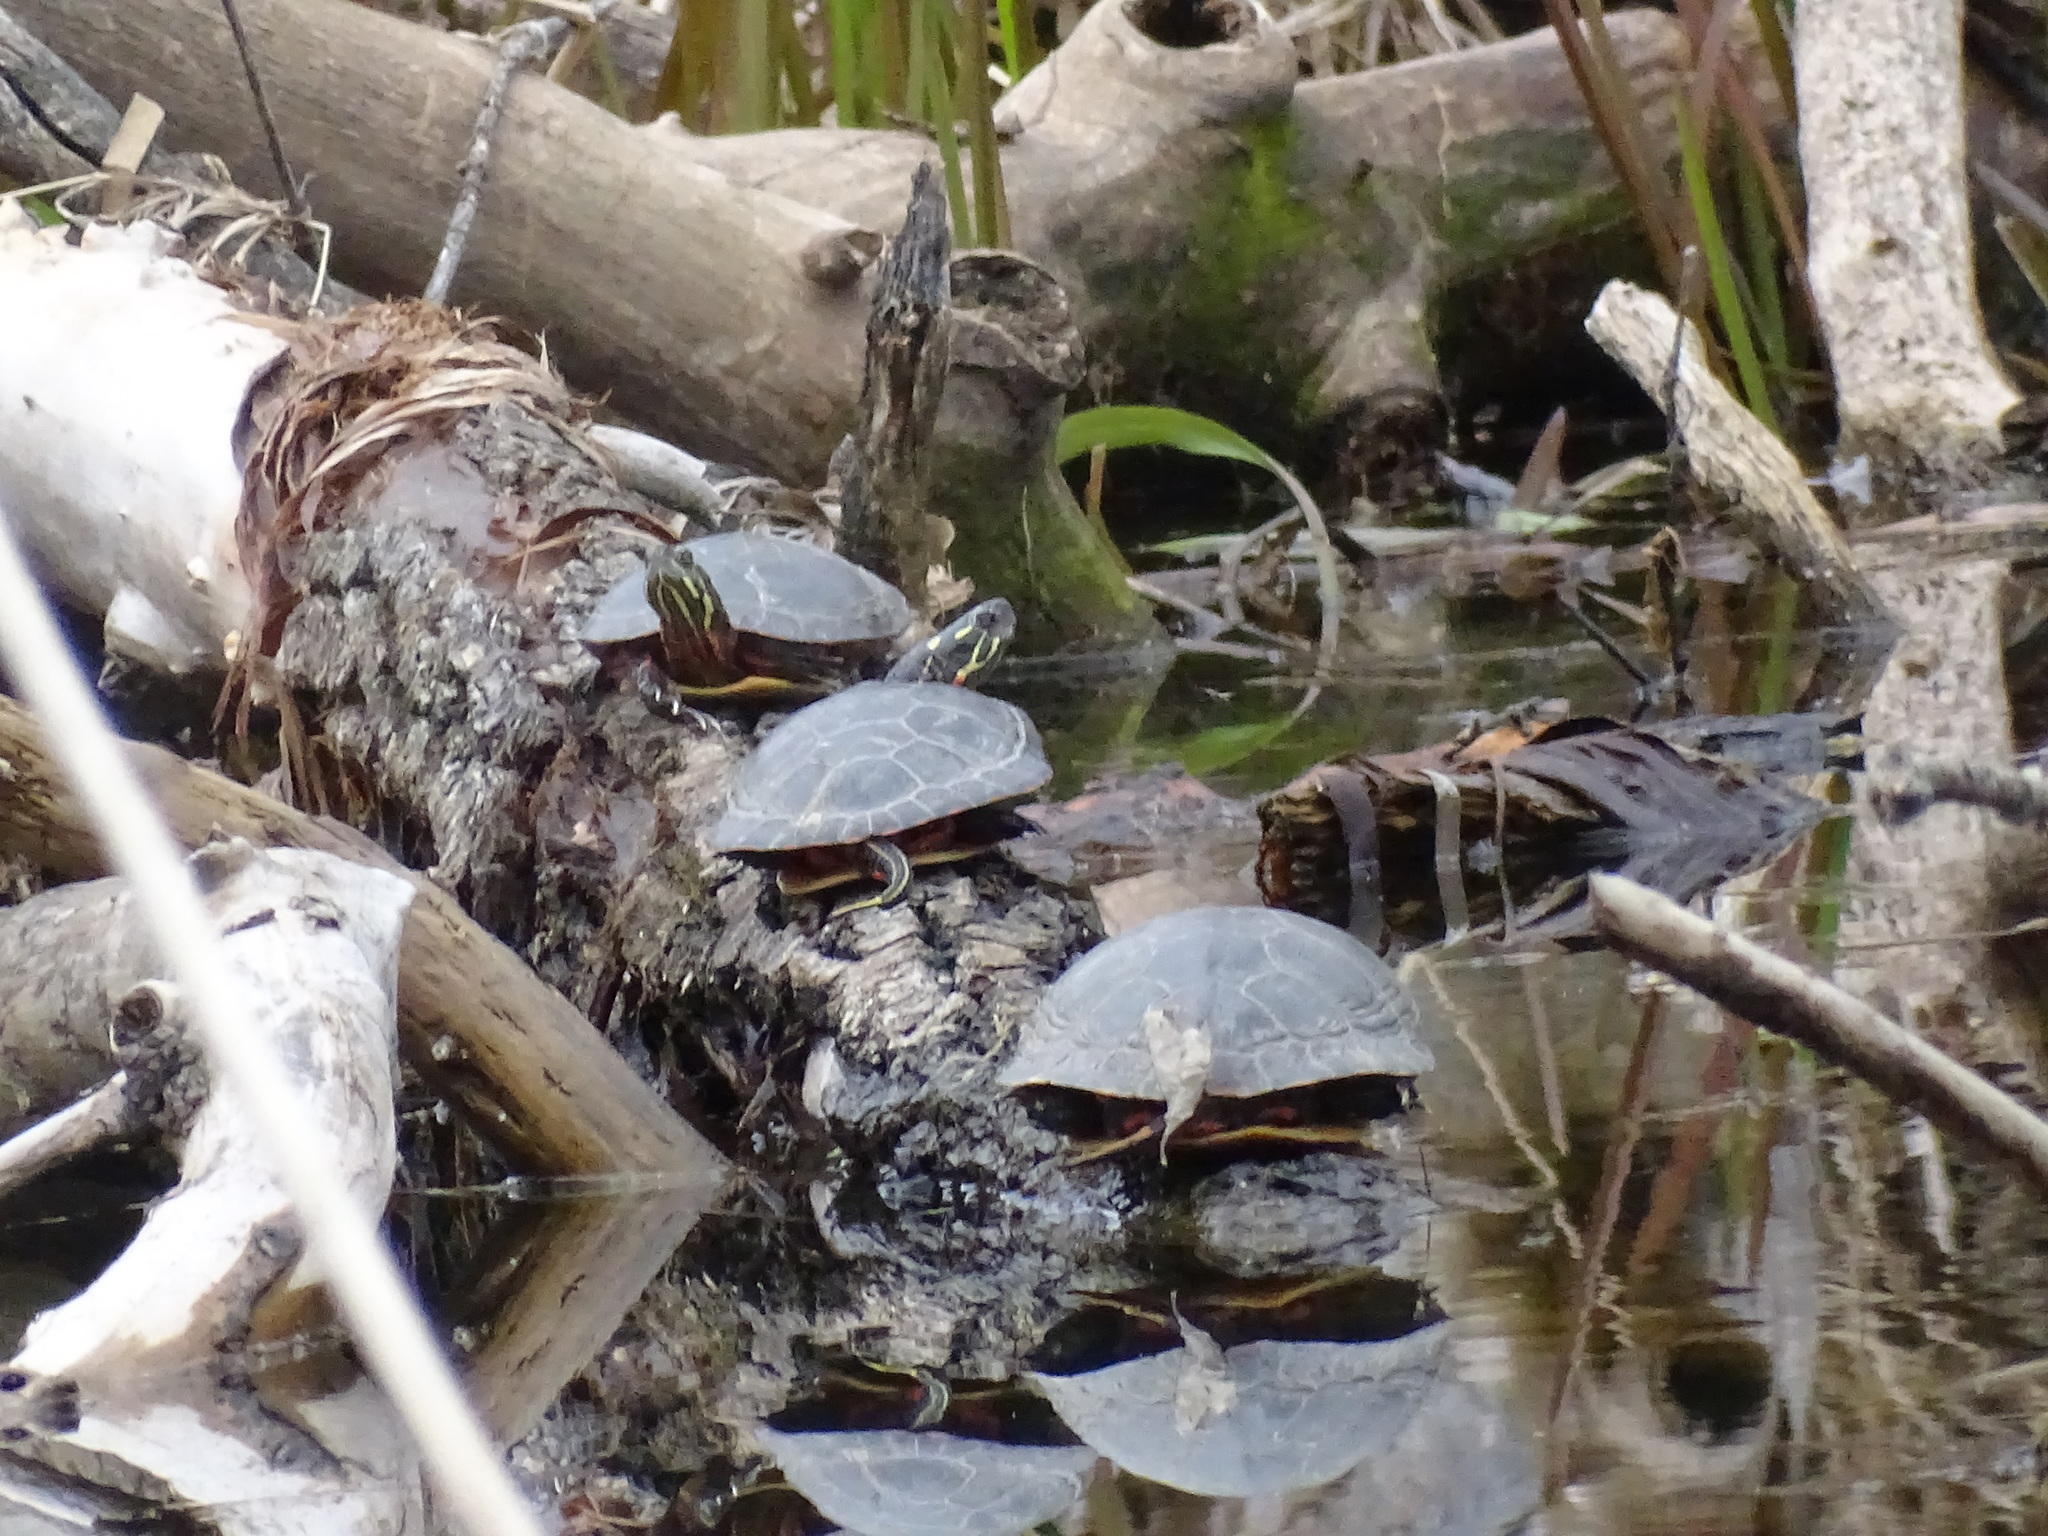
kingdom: Animalia
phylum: Chordata
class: Testudines
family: Emydidae
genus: Chrysemys
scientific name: Chrysemys picta
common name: Painted turtle
